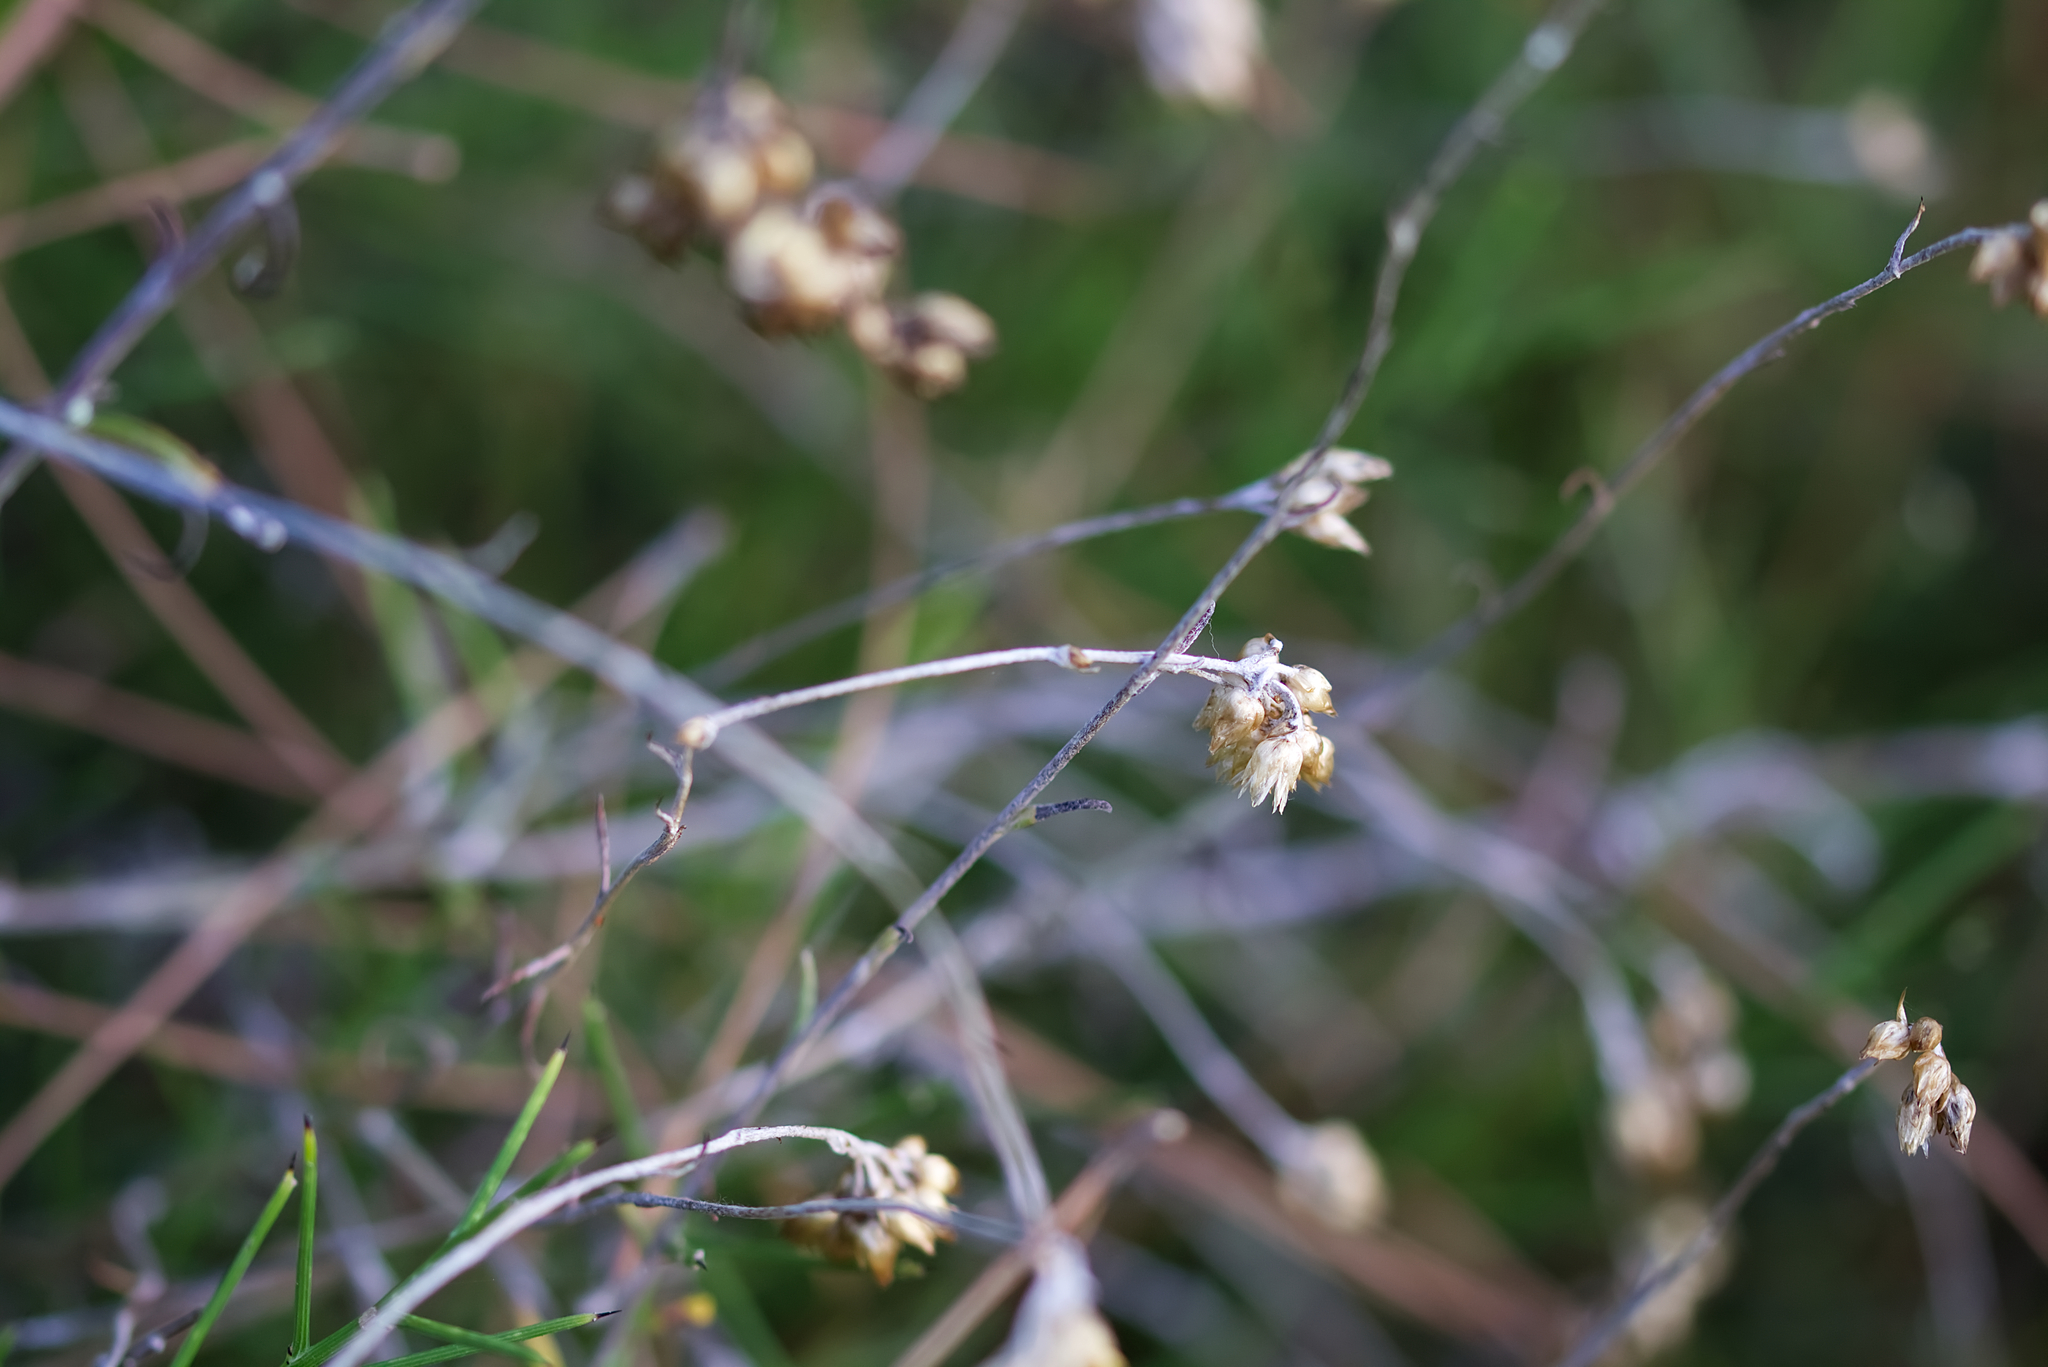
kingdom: Plantae
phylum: Tracheophyta
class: Magnoliopsida
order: Asterales
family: Asteraceae
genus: Helichrysum
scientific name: Helichrysum stoechas
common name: Goldilocks
